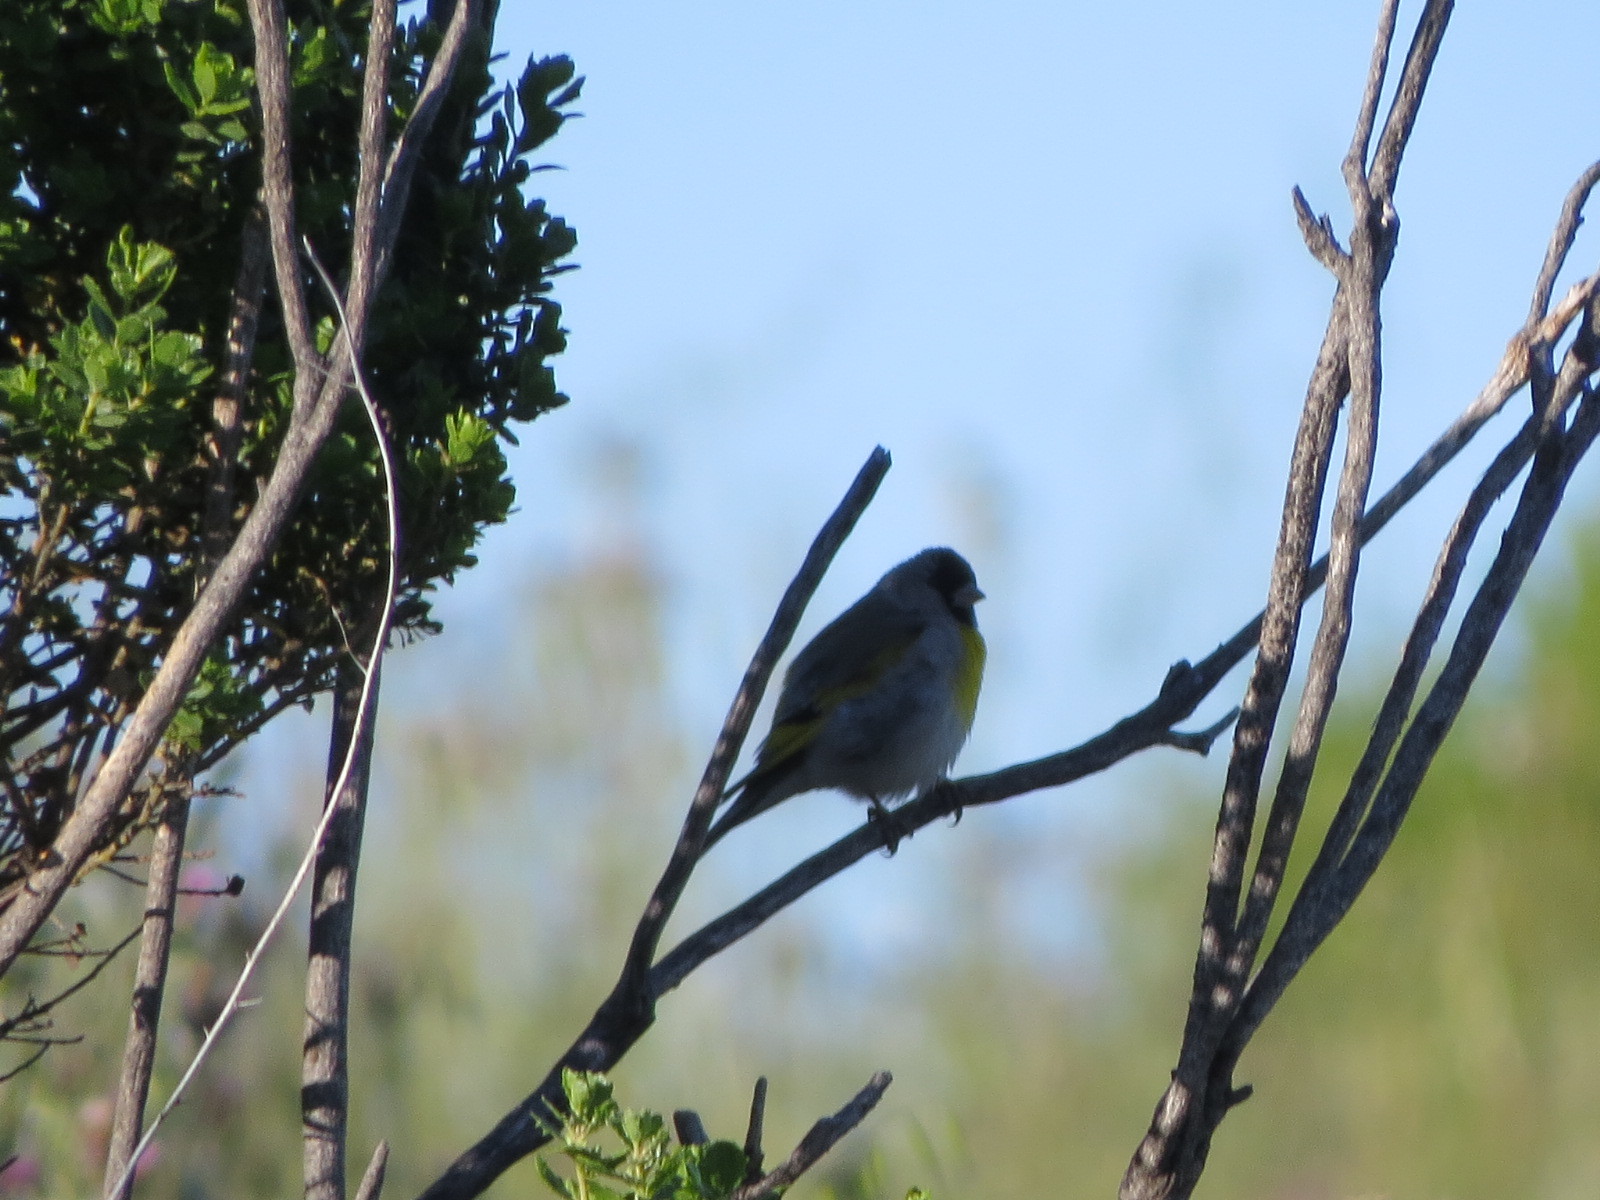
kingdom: Animalia
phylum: Chordata
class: Aves
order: Passeriformes
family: Fringillidae
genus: Spinus
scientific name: Spinus lawrencei
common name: Lawrence's goldfinch
